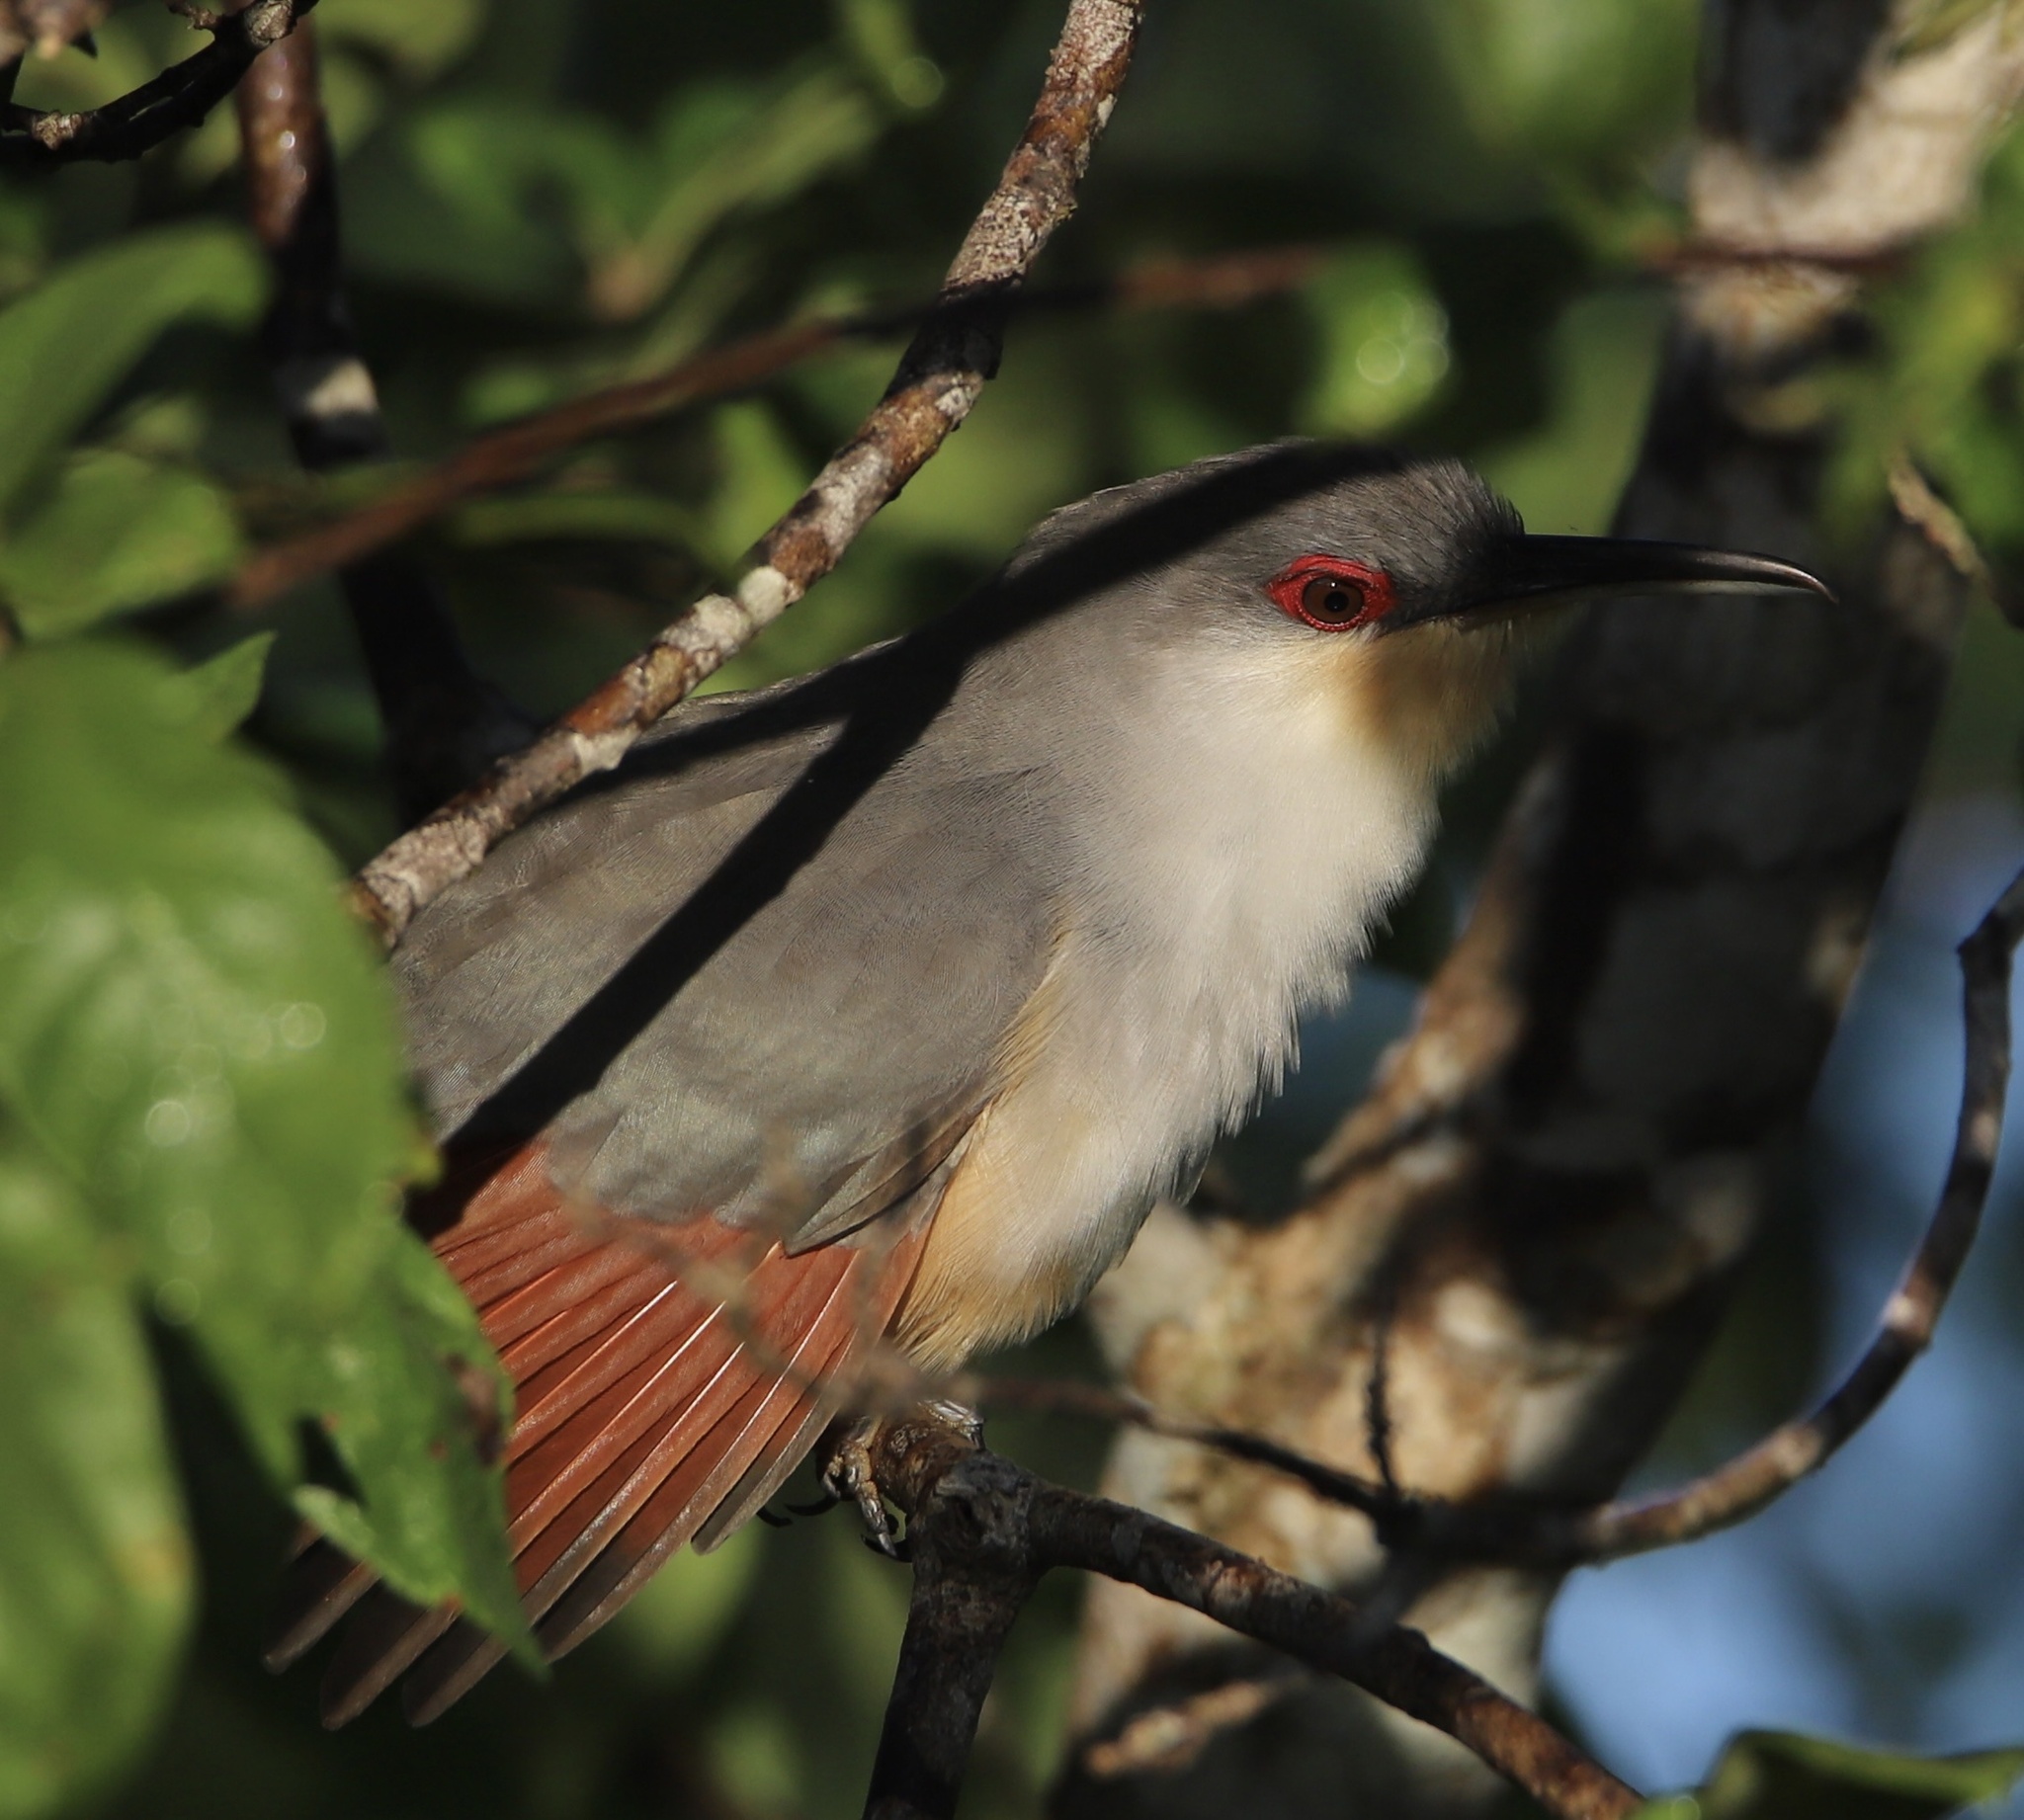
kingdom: Animalia
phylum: Chordata
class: Aves
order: Cuculiformes
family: Cuculidae
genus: Saurothera
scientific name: Saurothera longirostris
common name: Hispaniolan lizard-cuckoo
